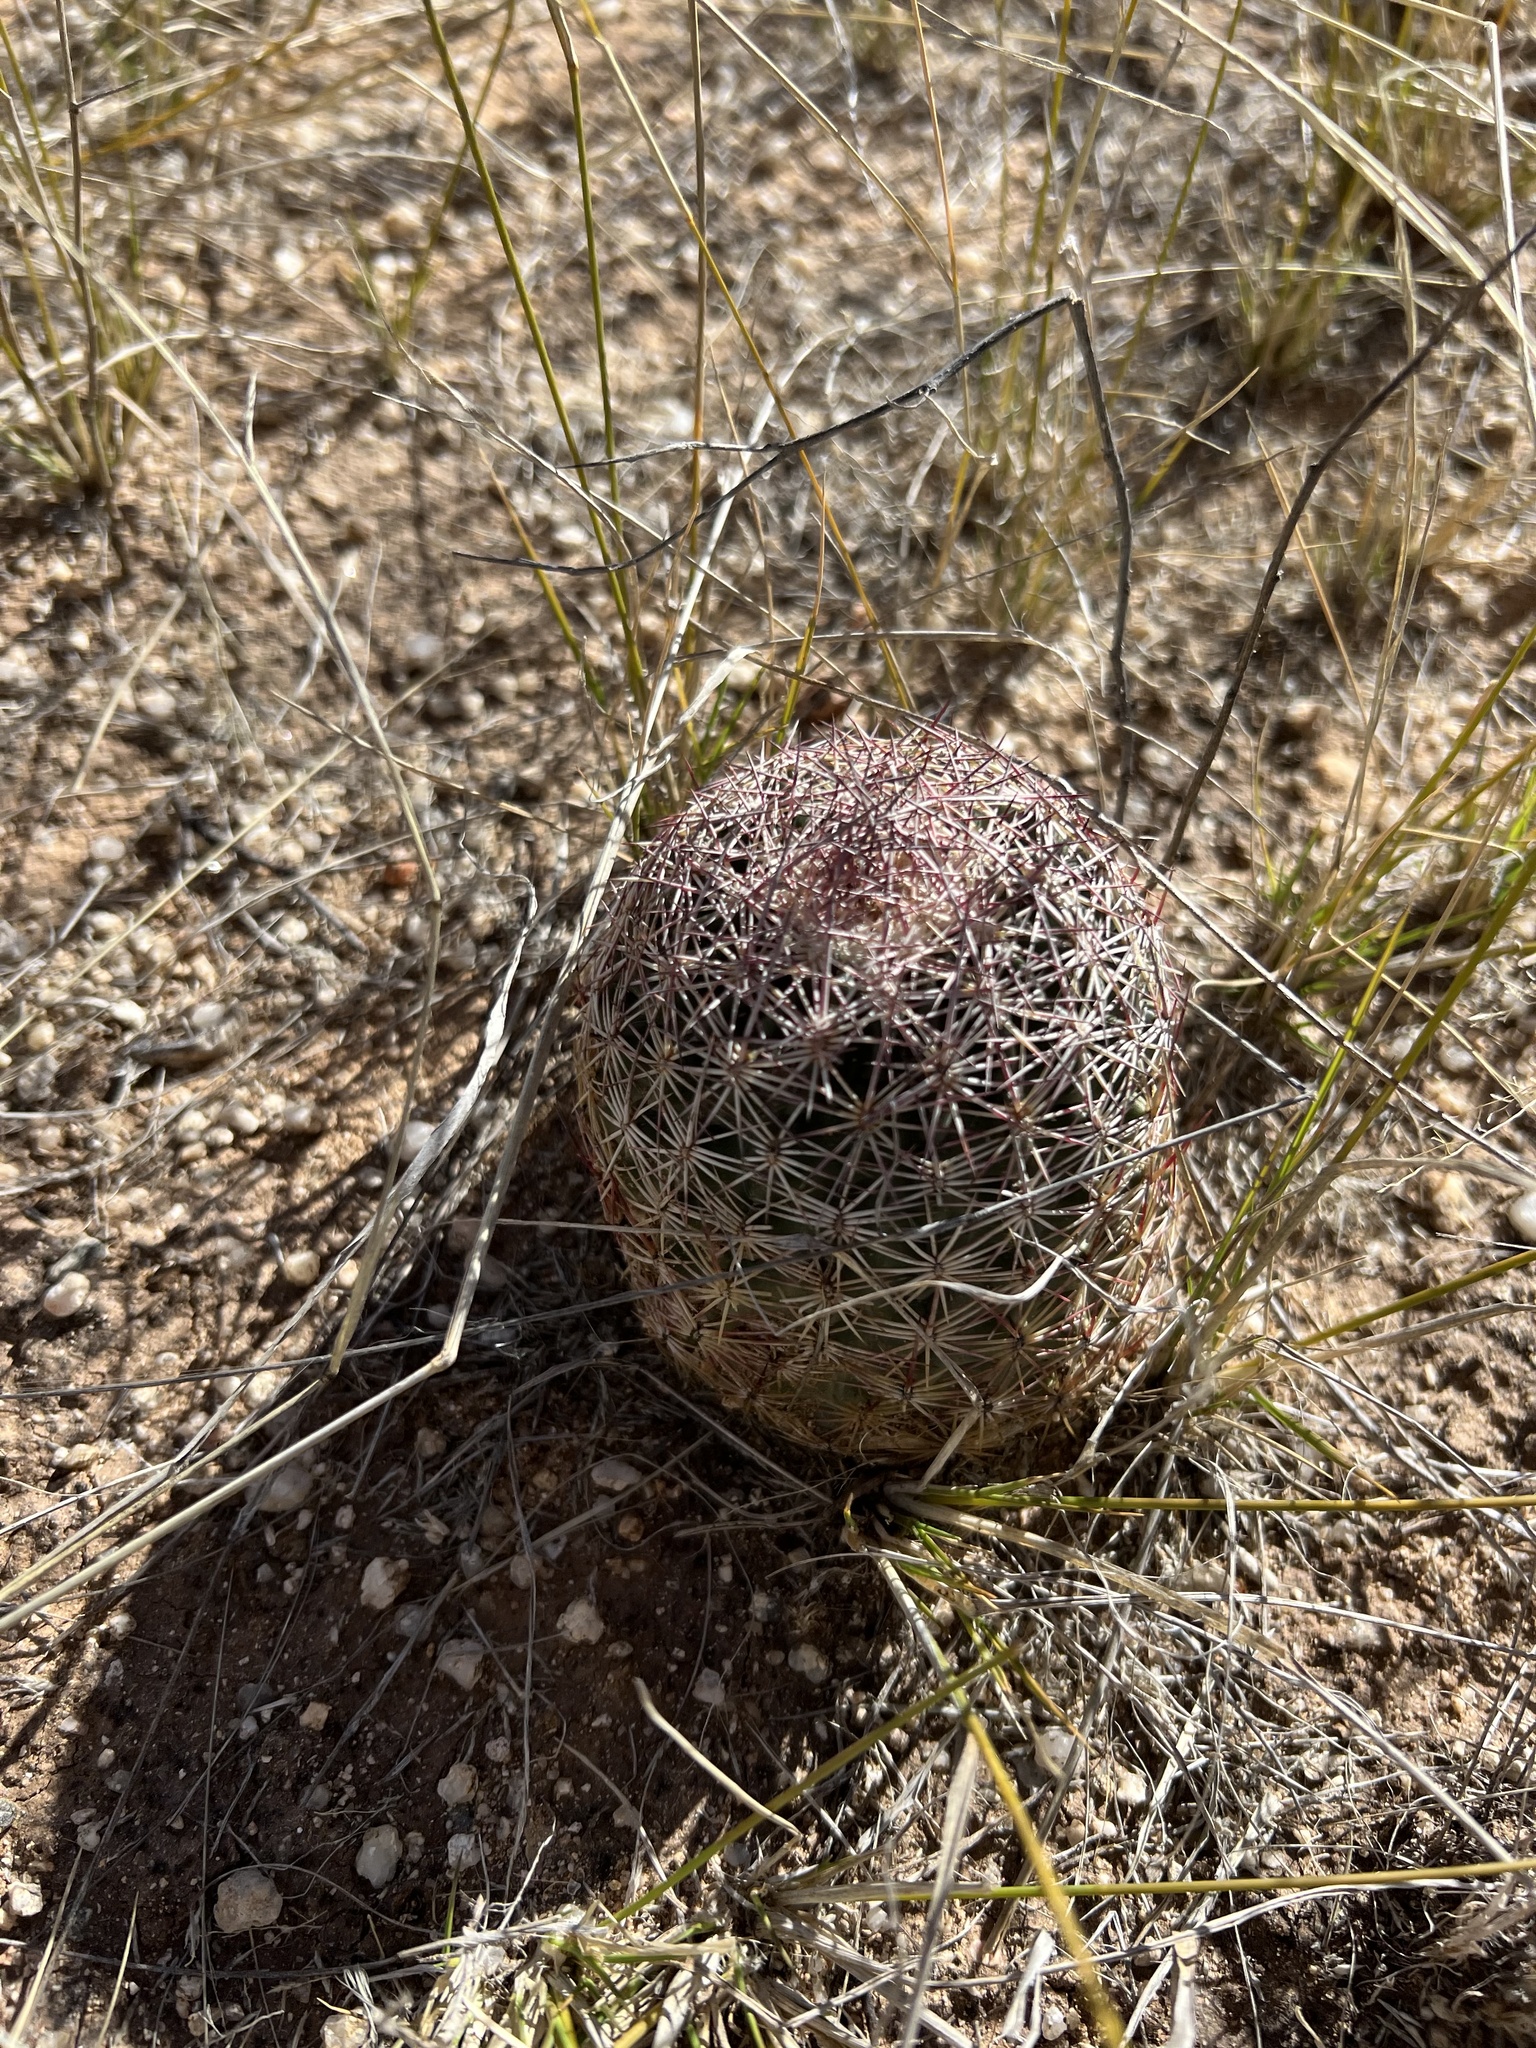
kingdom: Plantae
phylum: Tracheophyta
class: Magnoliopsida
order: Caryophyllales
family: Cactaceae
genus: Sclerocactus
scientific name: Sclerocactus johnsonii
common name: Eight-spine fishhook cactus
